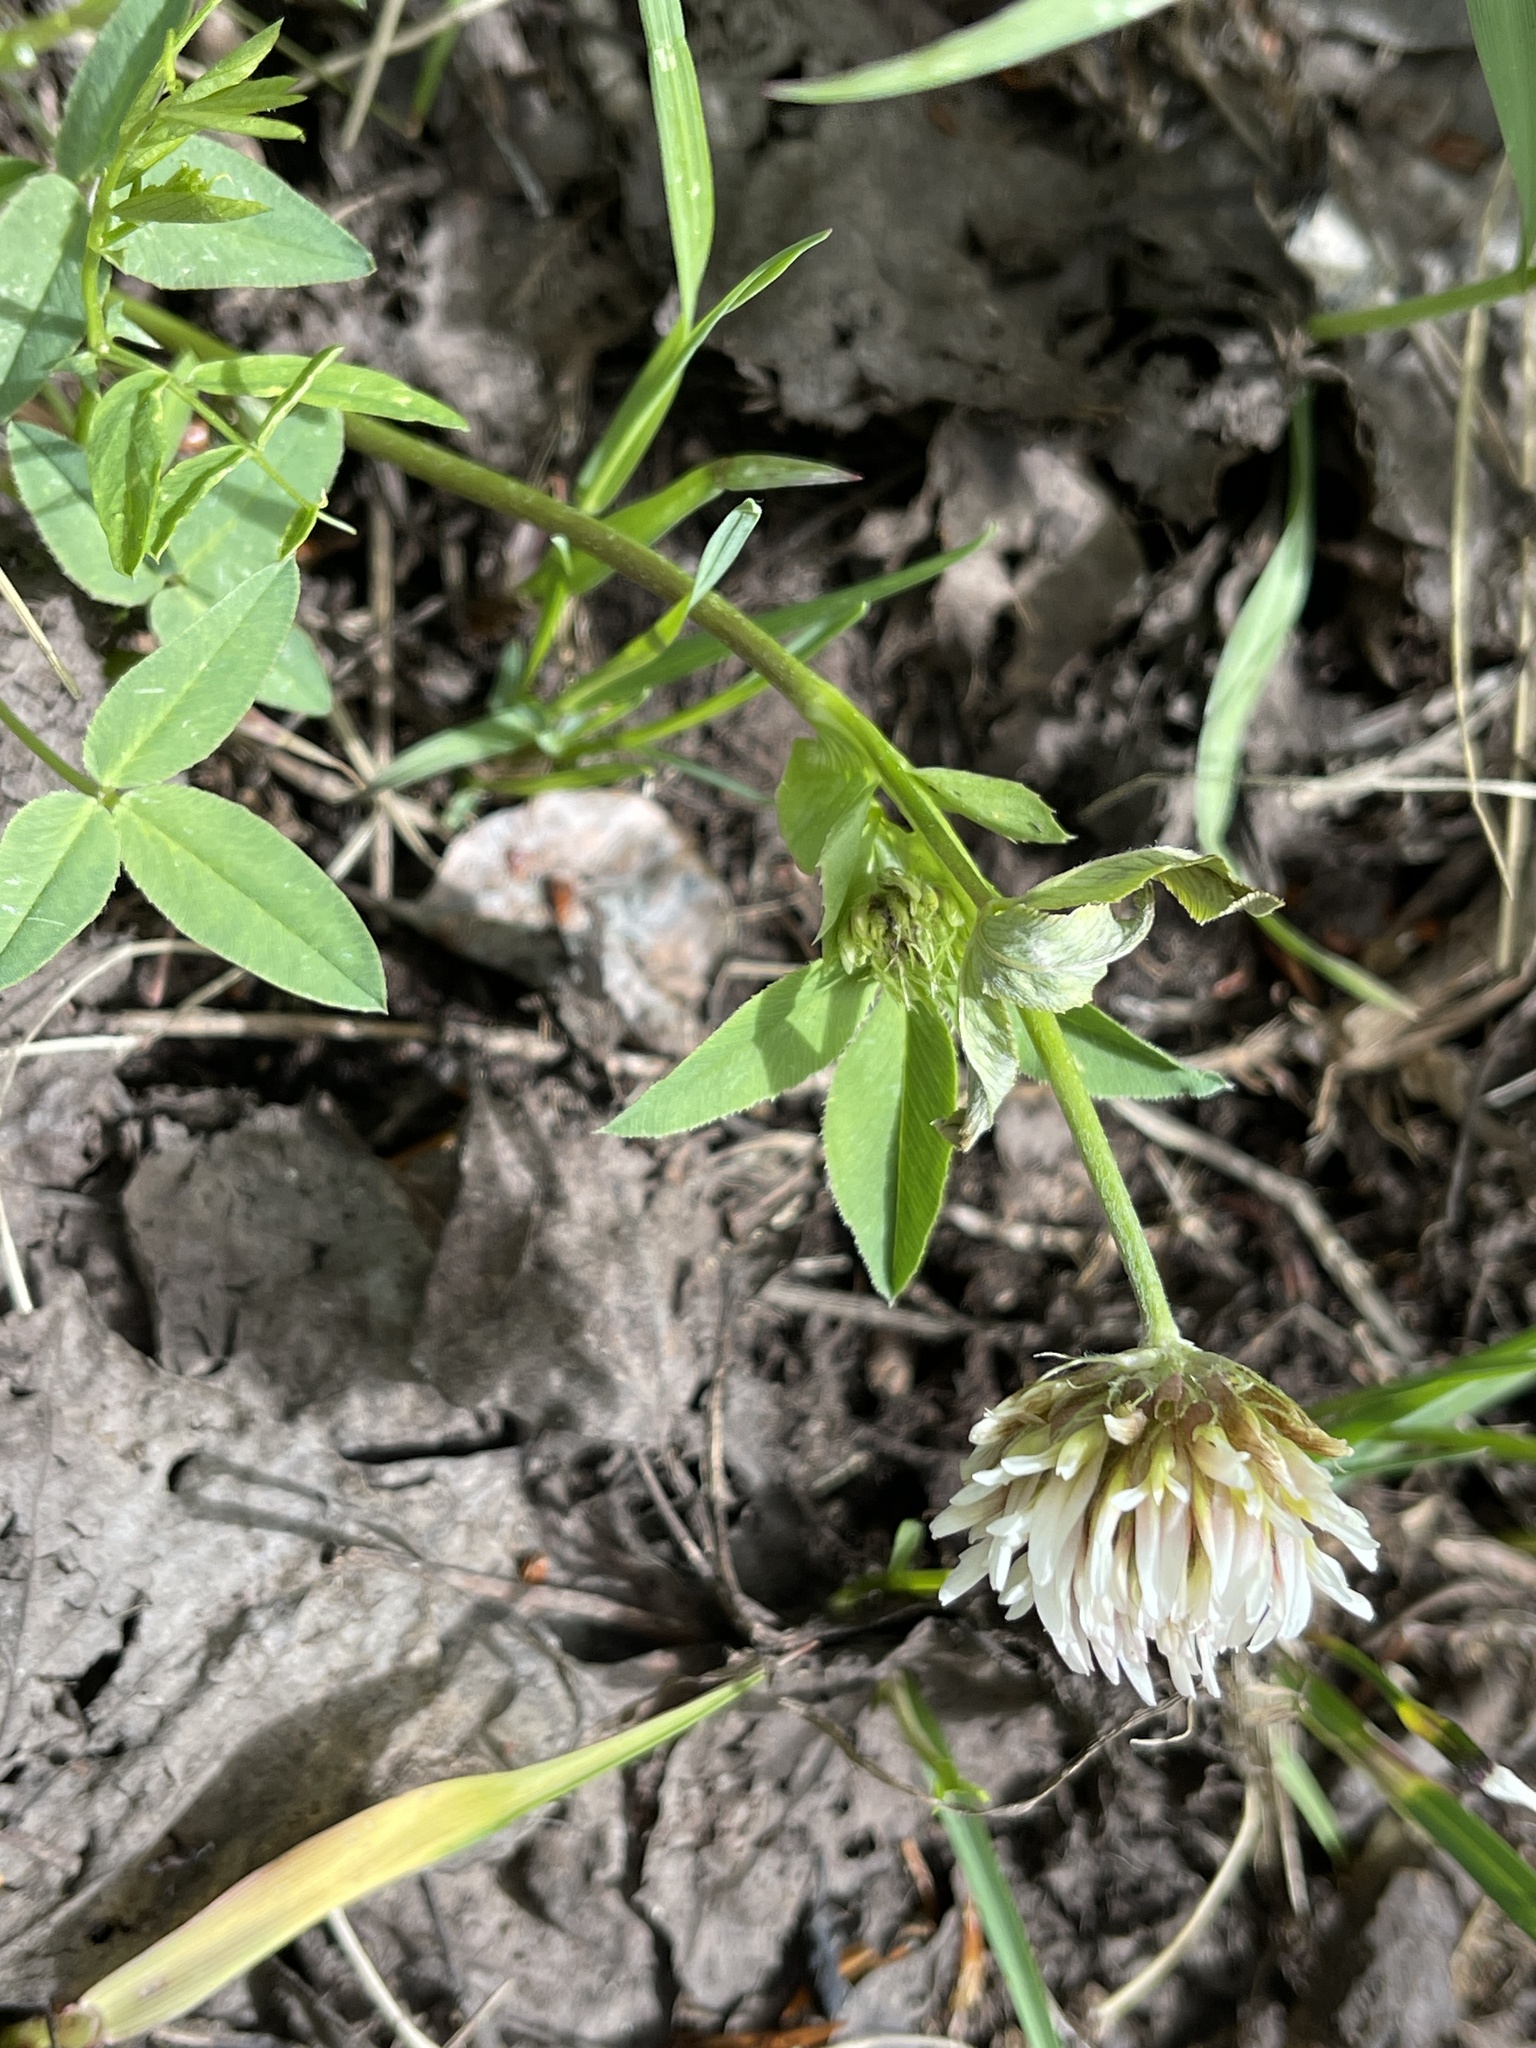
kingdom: Plantae
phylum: Tracheophyta
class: Magnoliopsida
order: Fabales
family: Fabaceae
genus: Trifolium
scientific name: Trifolium longipes
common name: Long-stalk clover
